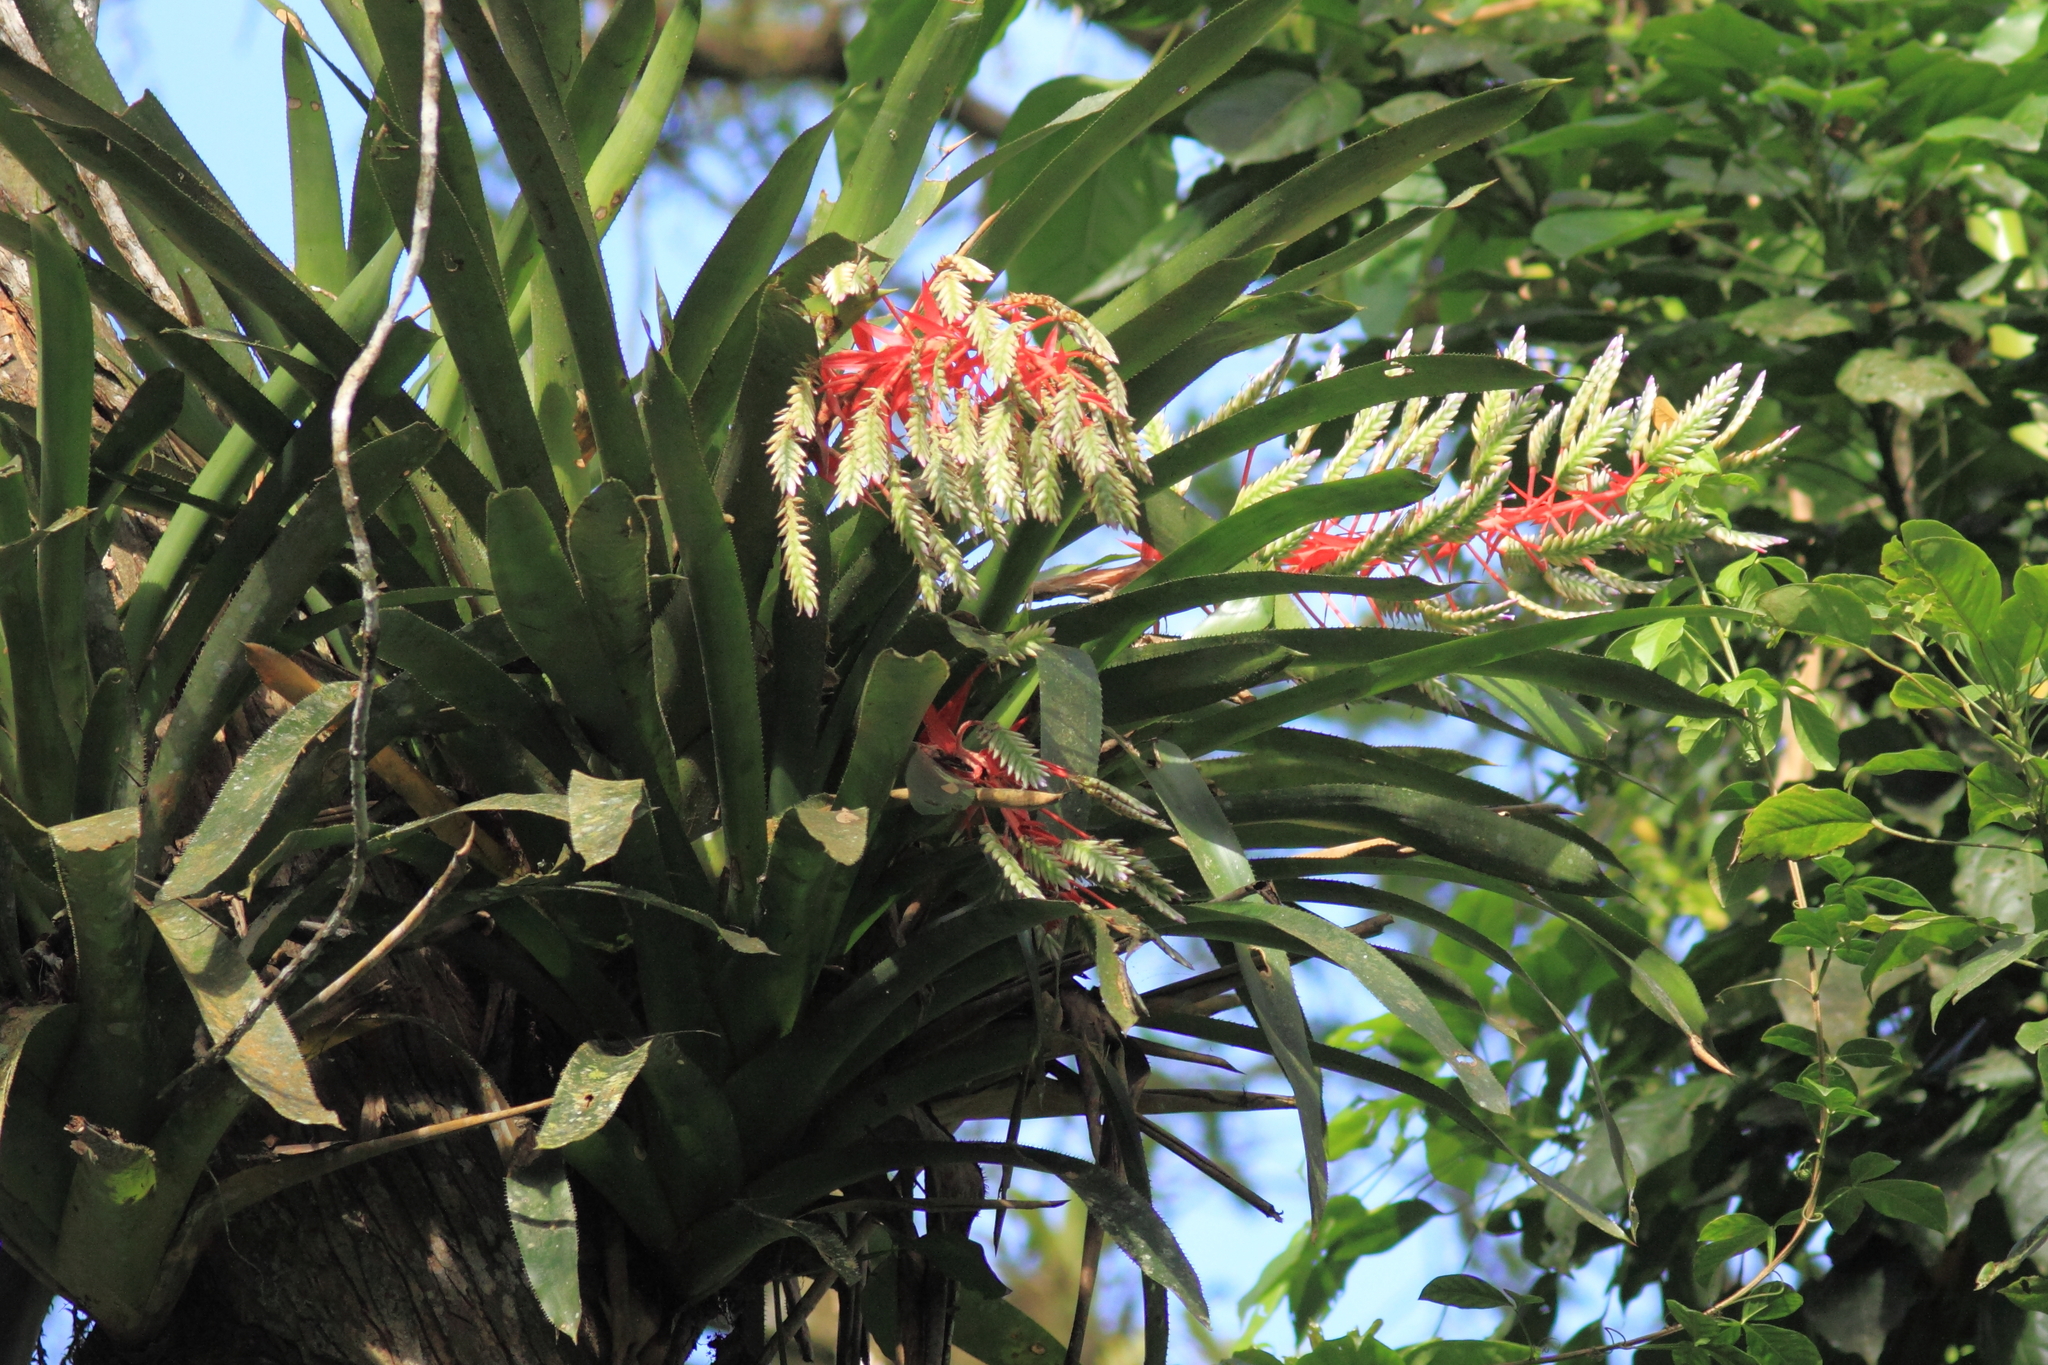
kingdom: Plantae
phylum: Tracheophyta
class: Liliopsida
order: Poales
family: Bromeliaceae
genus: Aechmea
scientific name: Aechmea dichlamydea
